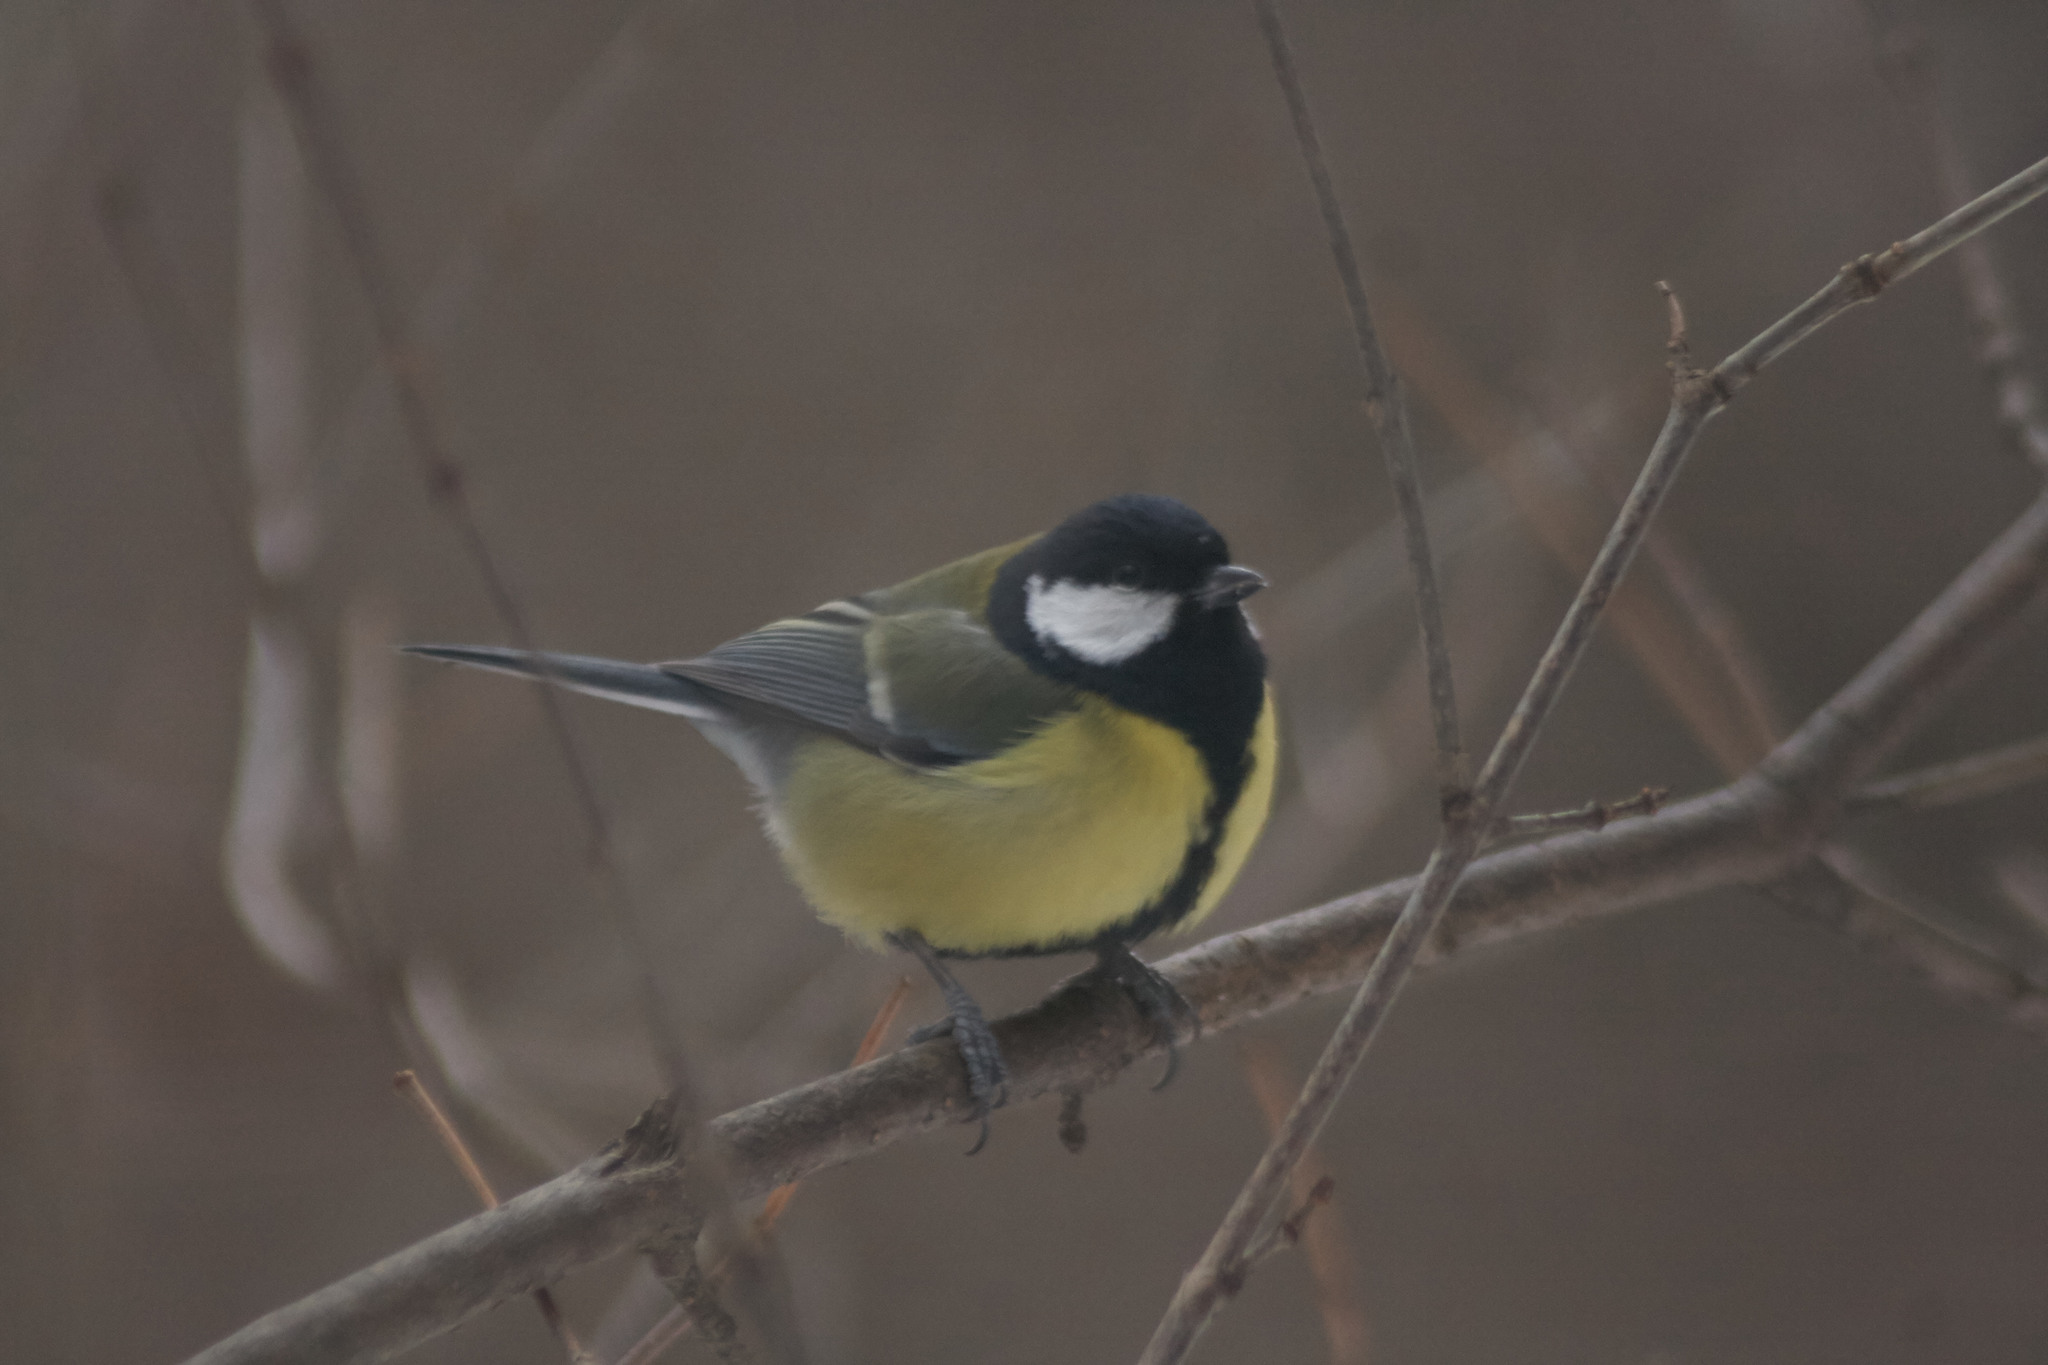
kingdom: Animalia
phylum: Chordata
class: Aves
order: Passeriformes
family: Paridae
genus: Parus
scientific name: Parus major
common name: Great tit
